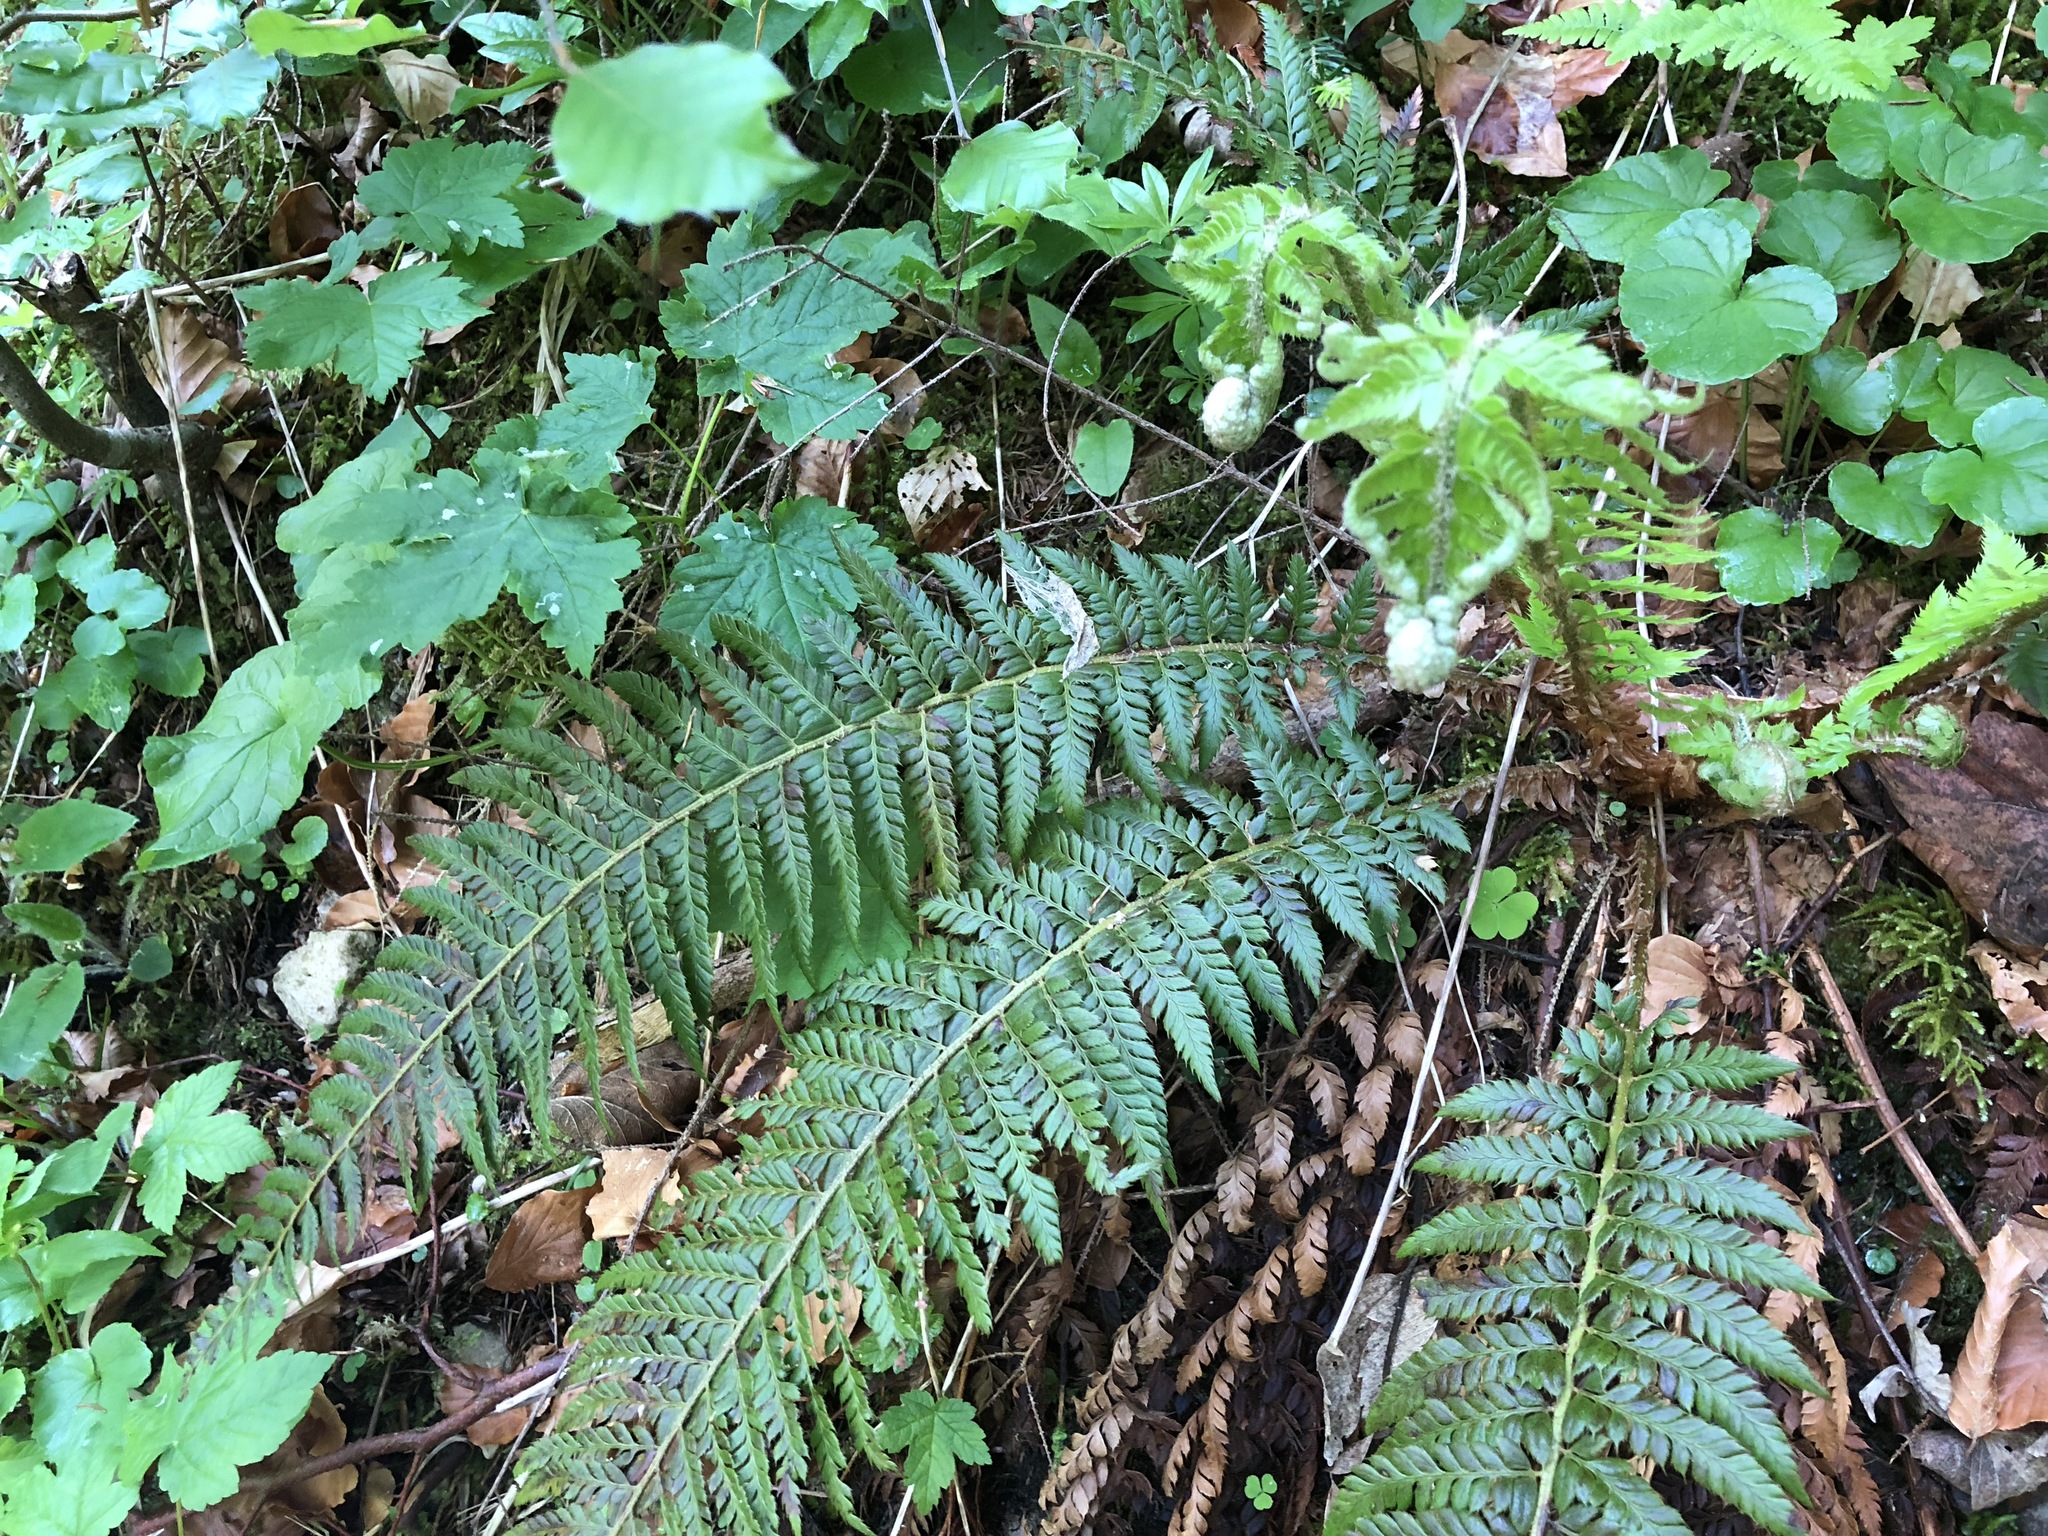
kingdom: Plantae
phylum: Tracheophyta
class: Polypodiopsida
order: Polypodiales
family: Dryopteridaceae
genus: Polystichum
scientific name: Polystichum aculeatum
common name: Hard shield-fern
